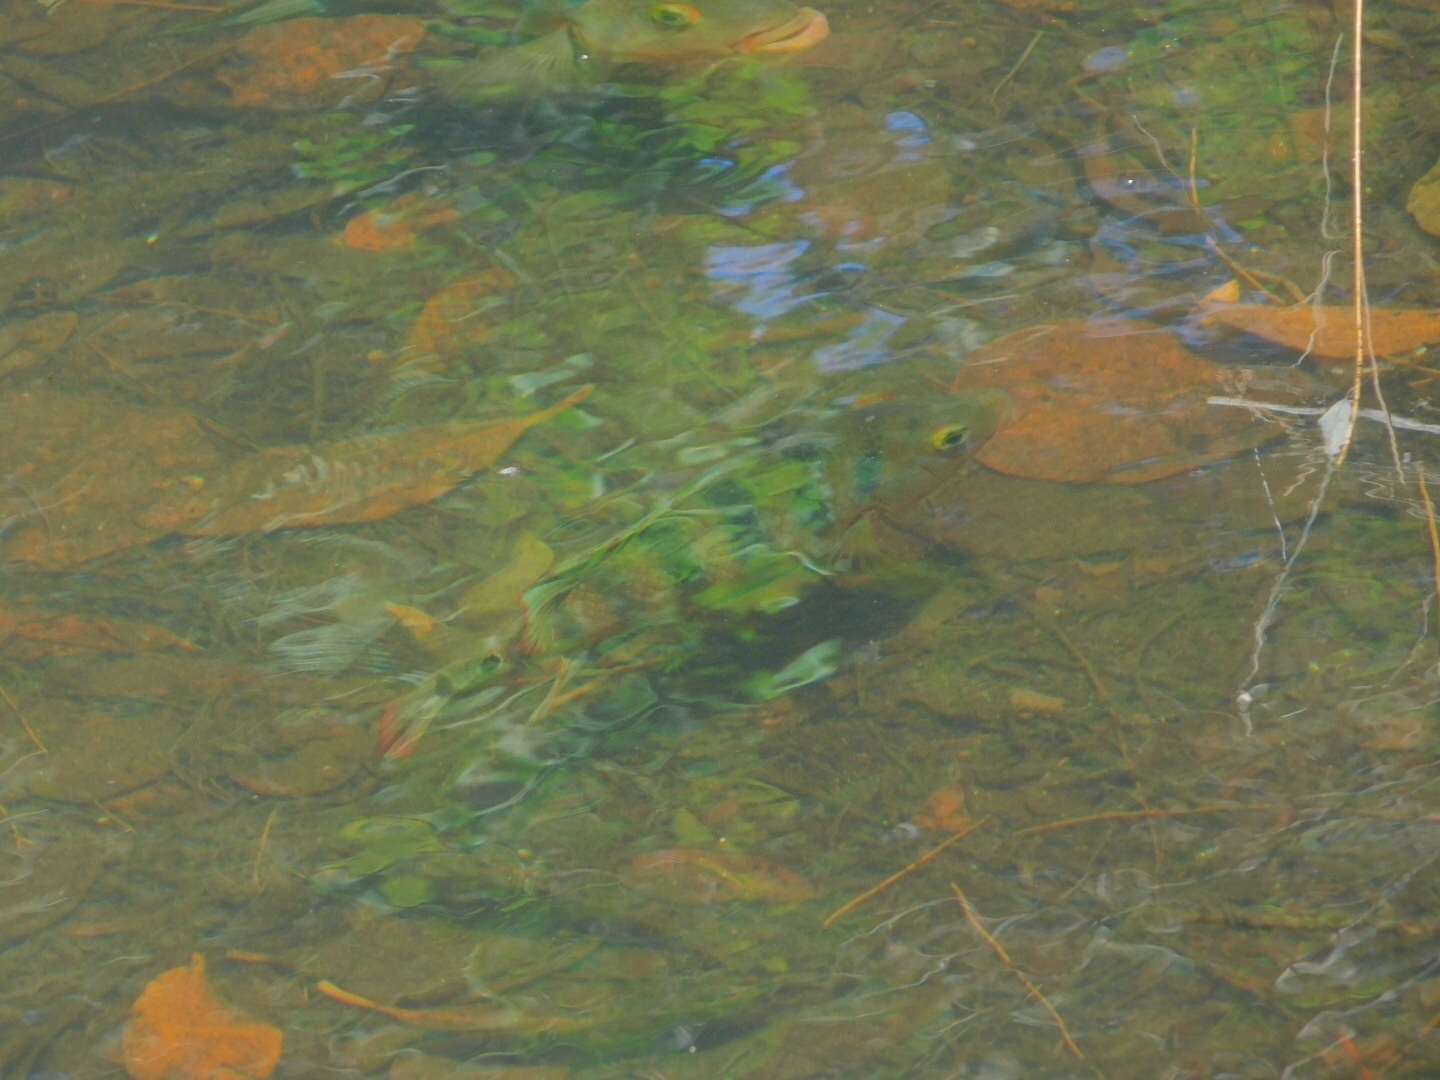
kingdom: Animalia
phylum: Chordata
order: Perciformes
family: Cichlidae
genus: Mayaheros
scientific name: Mayaheros urophthalmus
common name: Mayan cichlid
